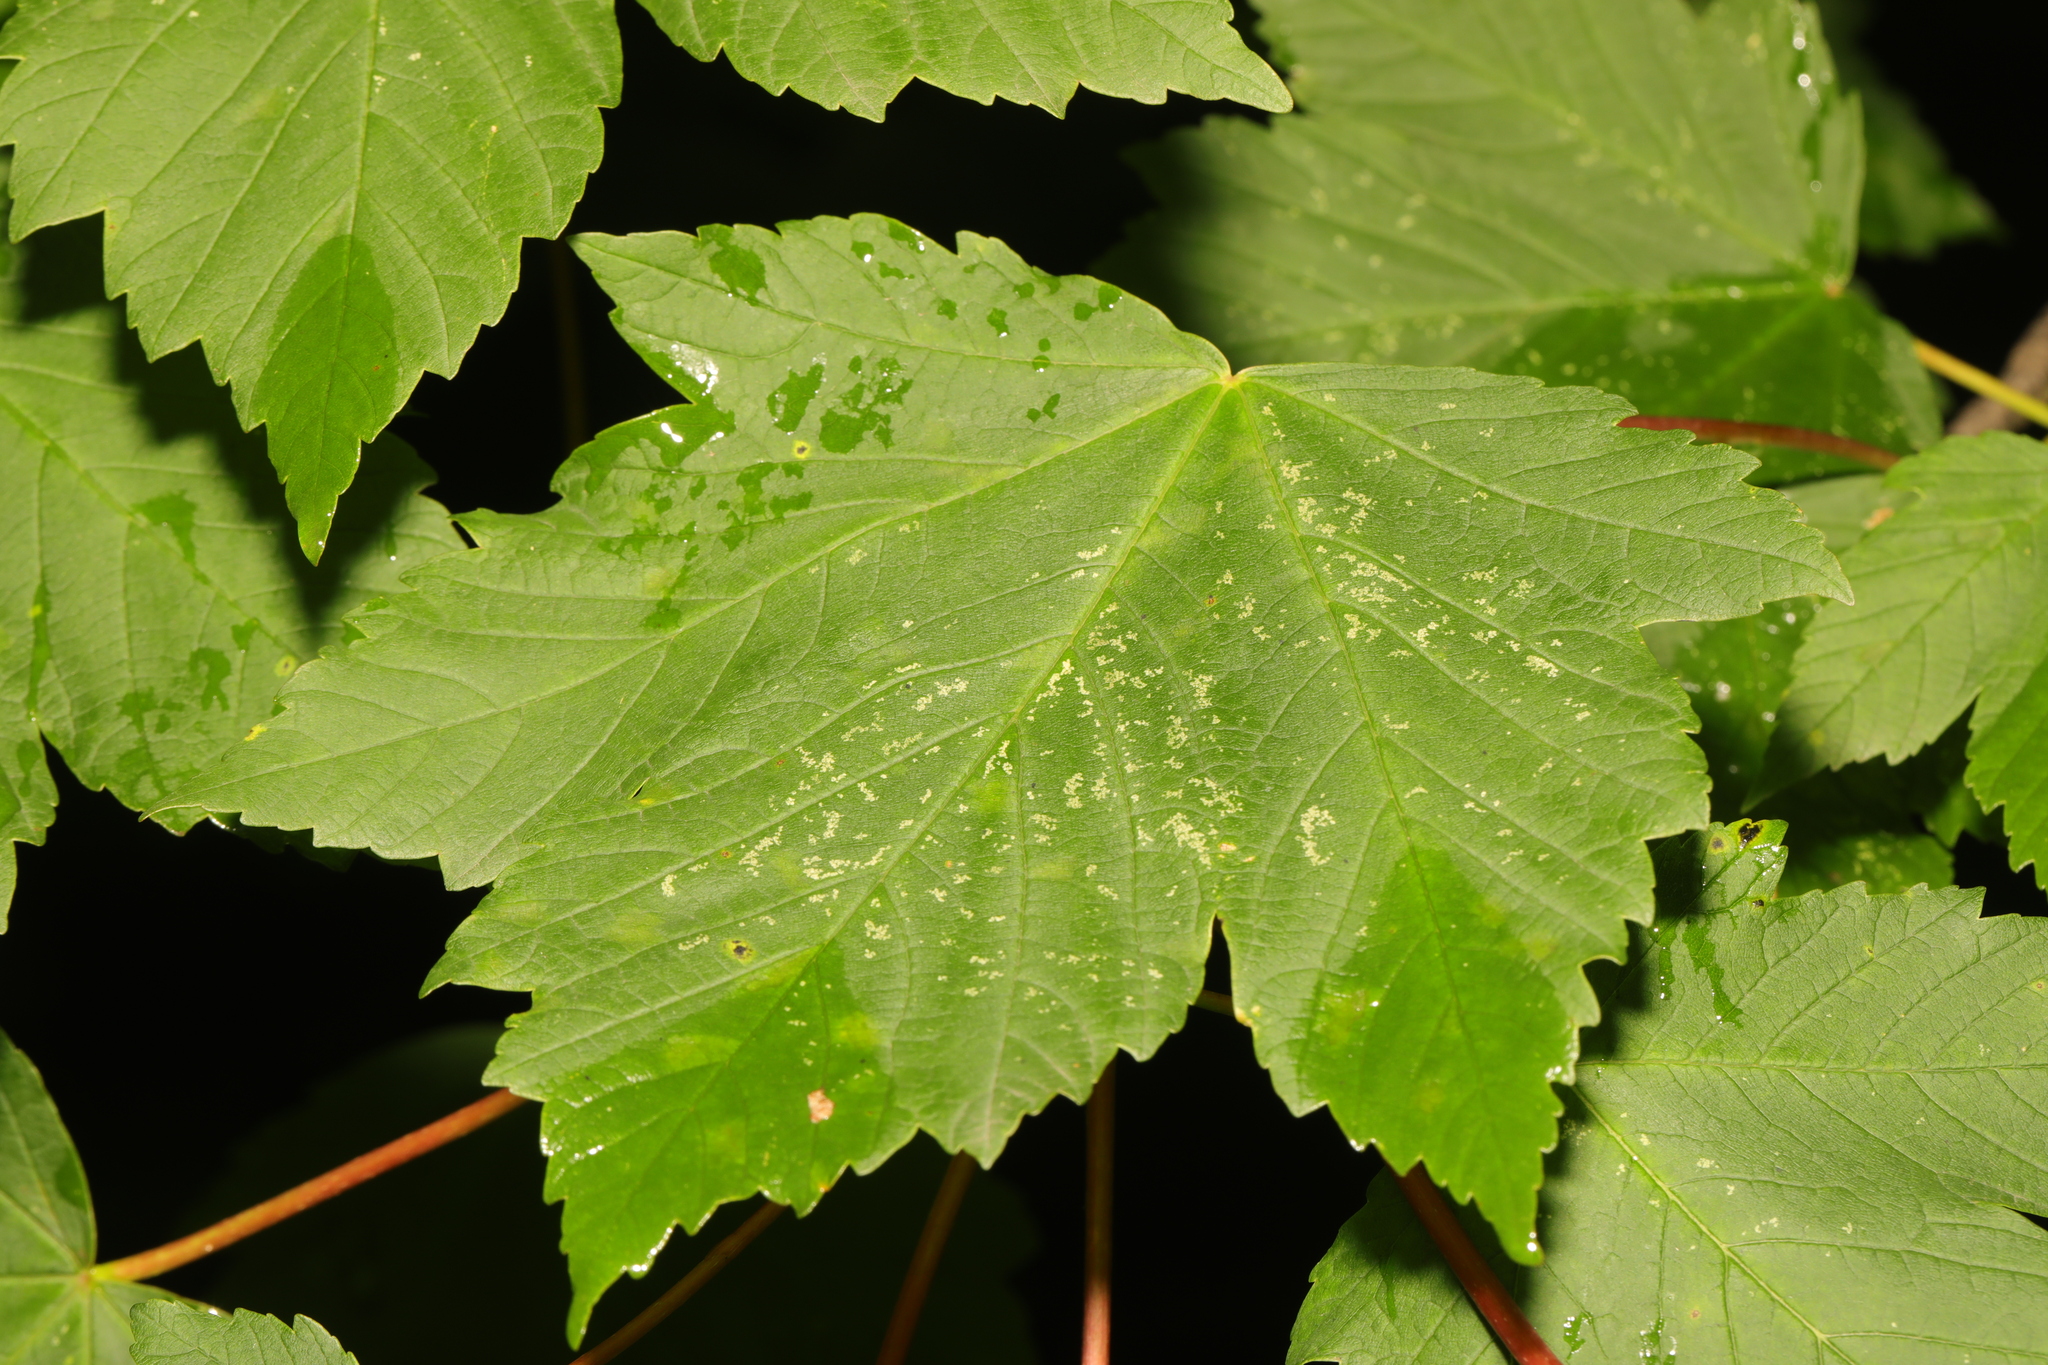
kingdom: Plantae
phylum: Tracheophyta
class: Magnoliopsida
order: Sapindales
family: Sapindaceae
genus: Acer
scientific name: Acer pseudoplatanus
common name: Sycamore
